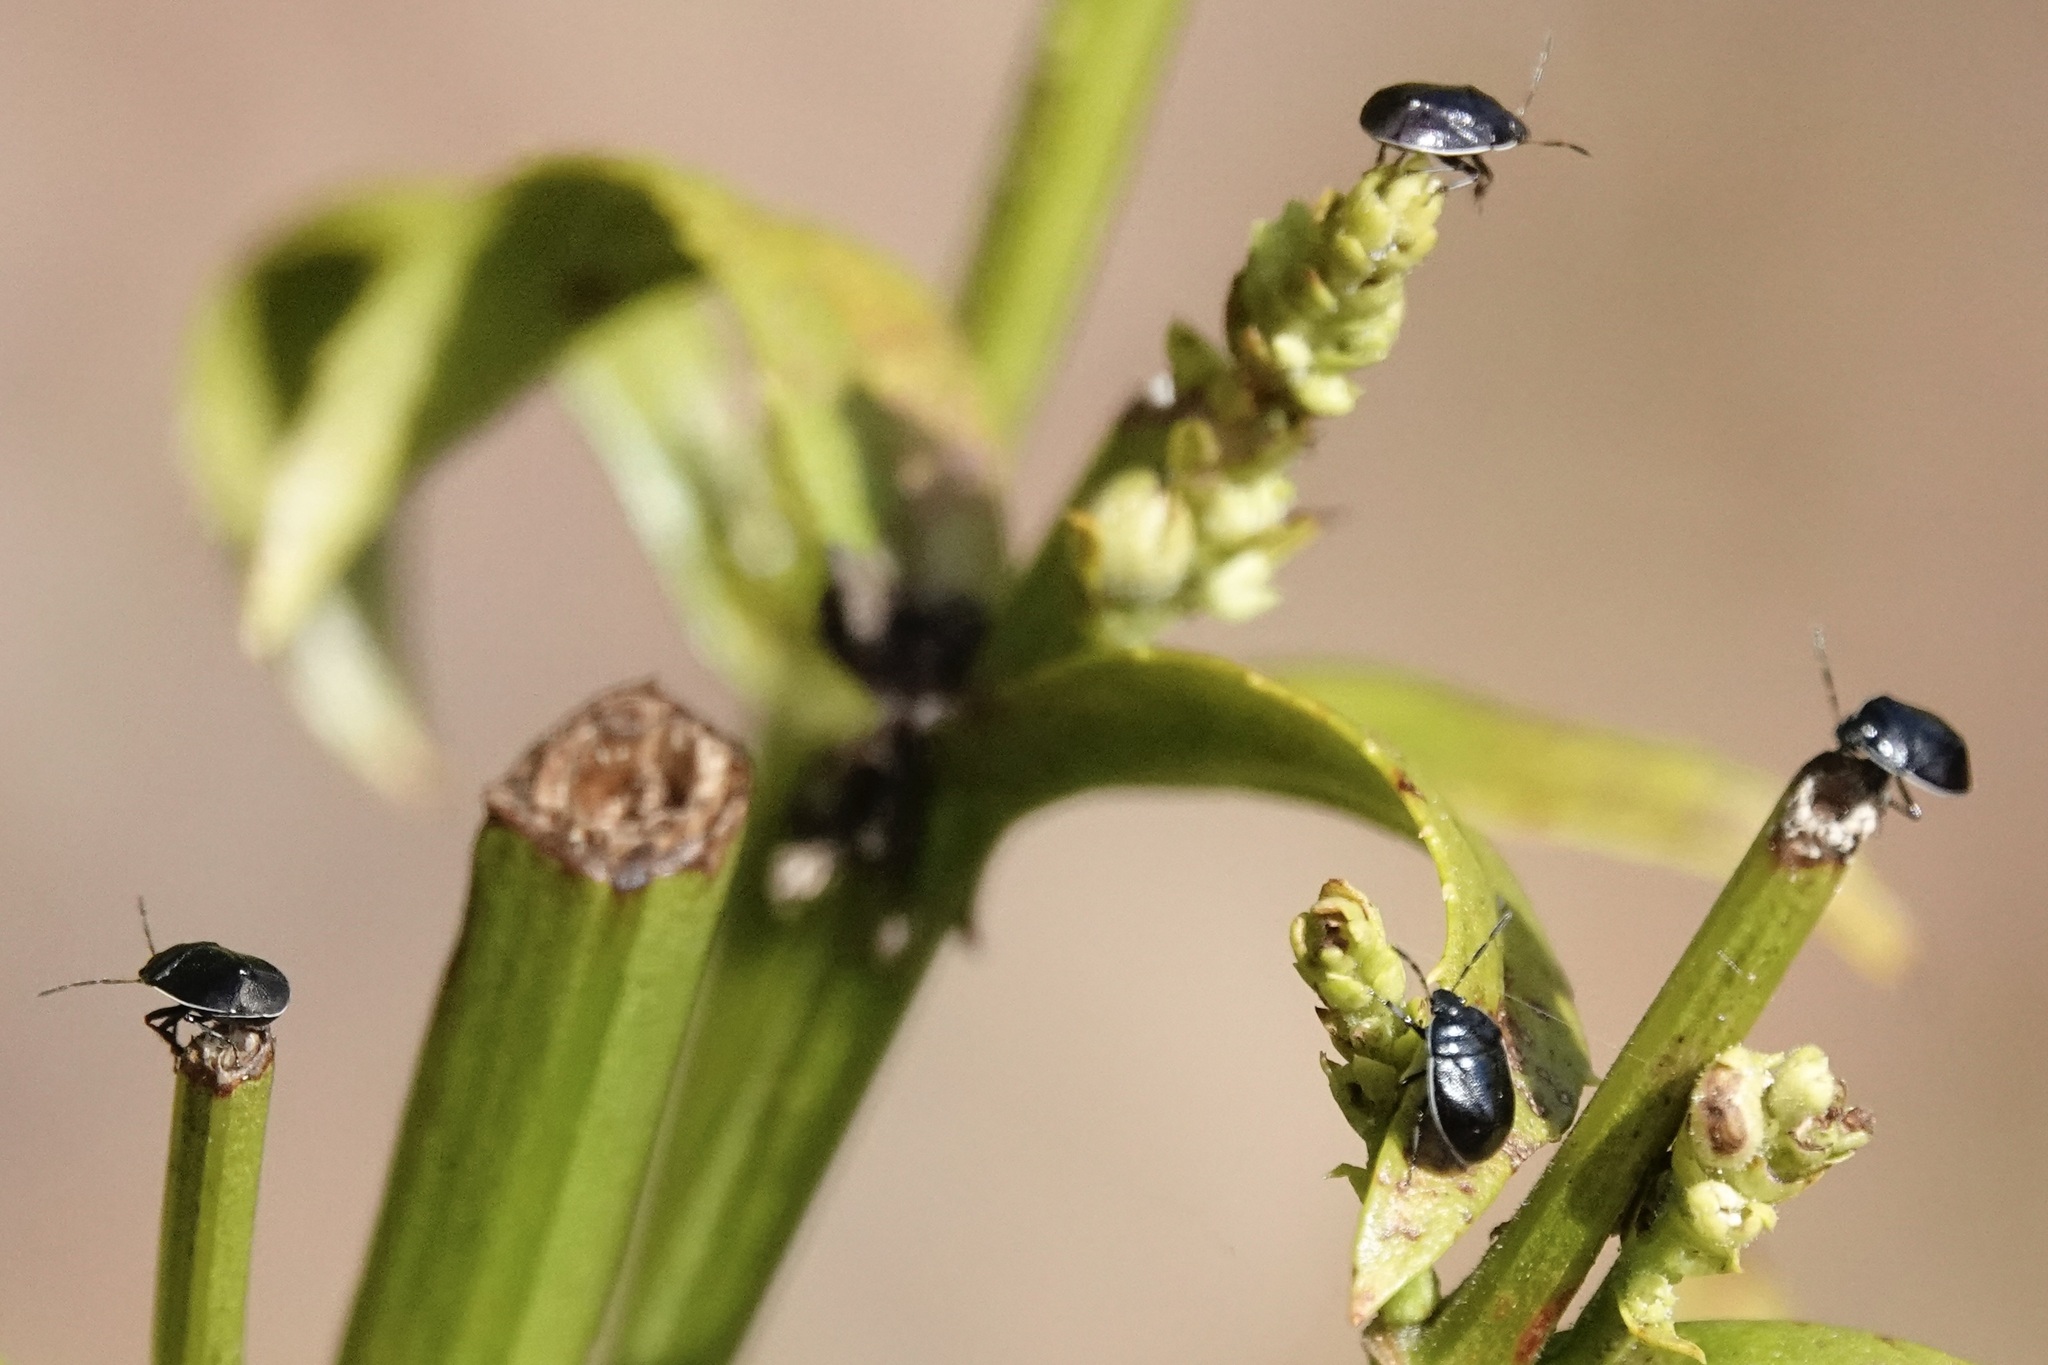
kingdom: Animalia
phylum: Arthropoda
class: Insecta
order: Hemiptera
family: Cydnidae
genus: Sehirus
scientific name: Sehirus cinctus
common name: White-margined burrower bug
